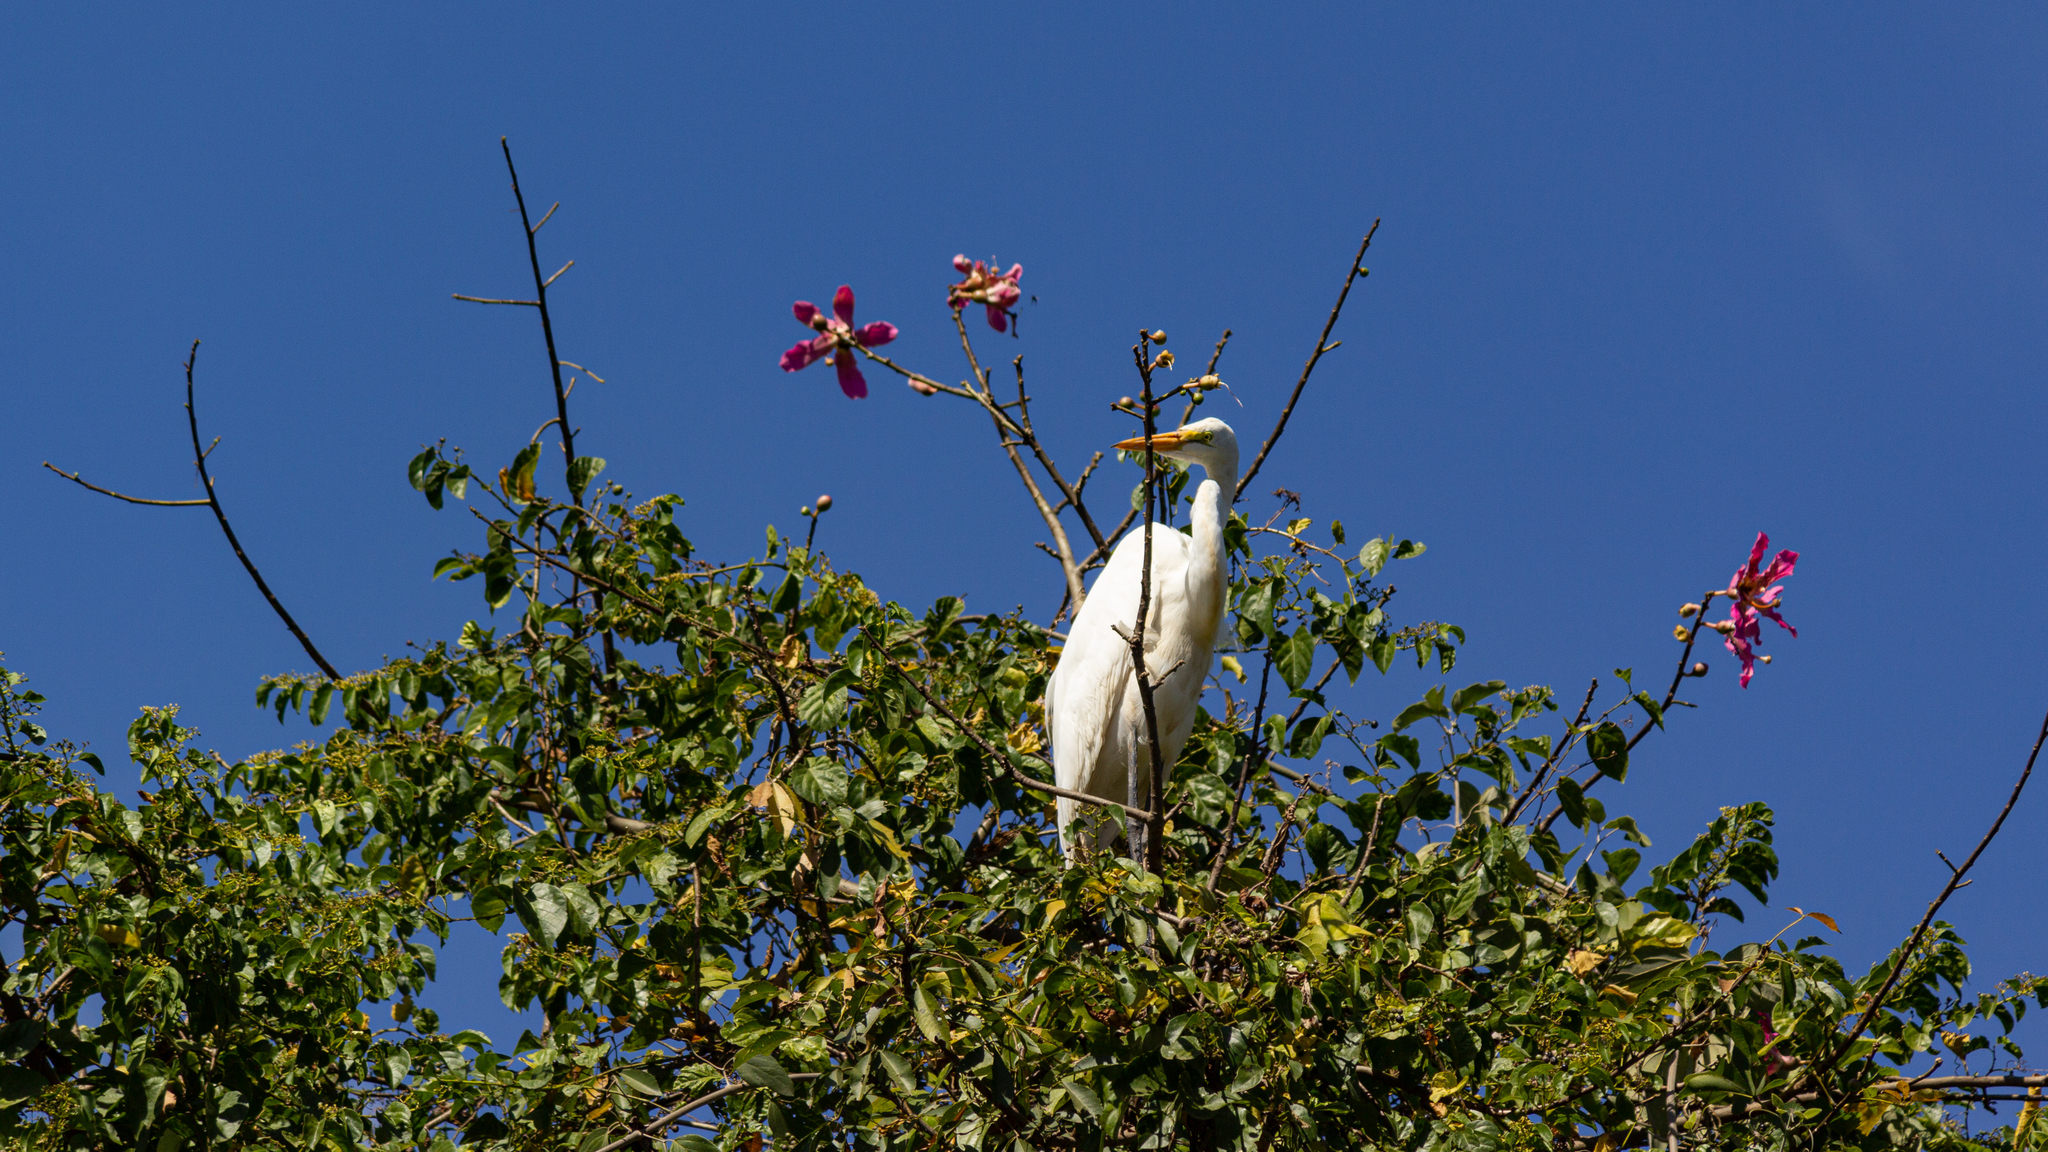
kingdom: Animalia
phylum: Chordata
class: Aves
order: Pelecaniformes
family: Ardeidae
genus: Ardea
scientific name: Ardea alba
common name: Great egret
